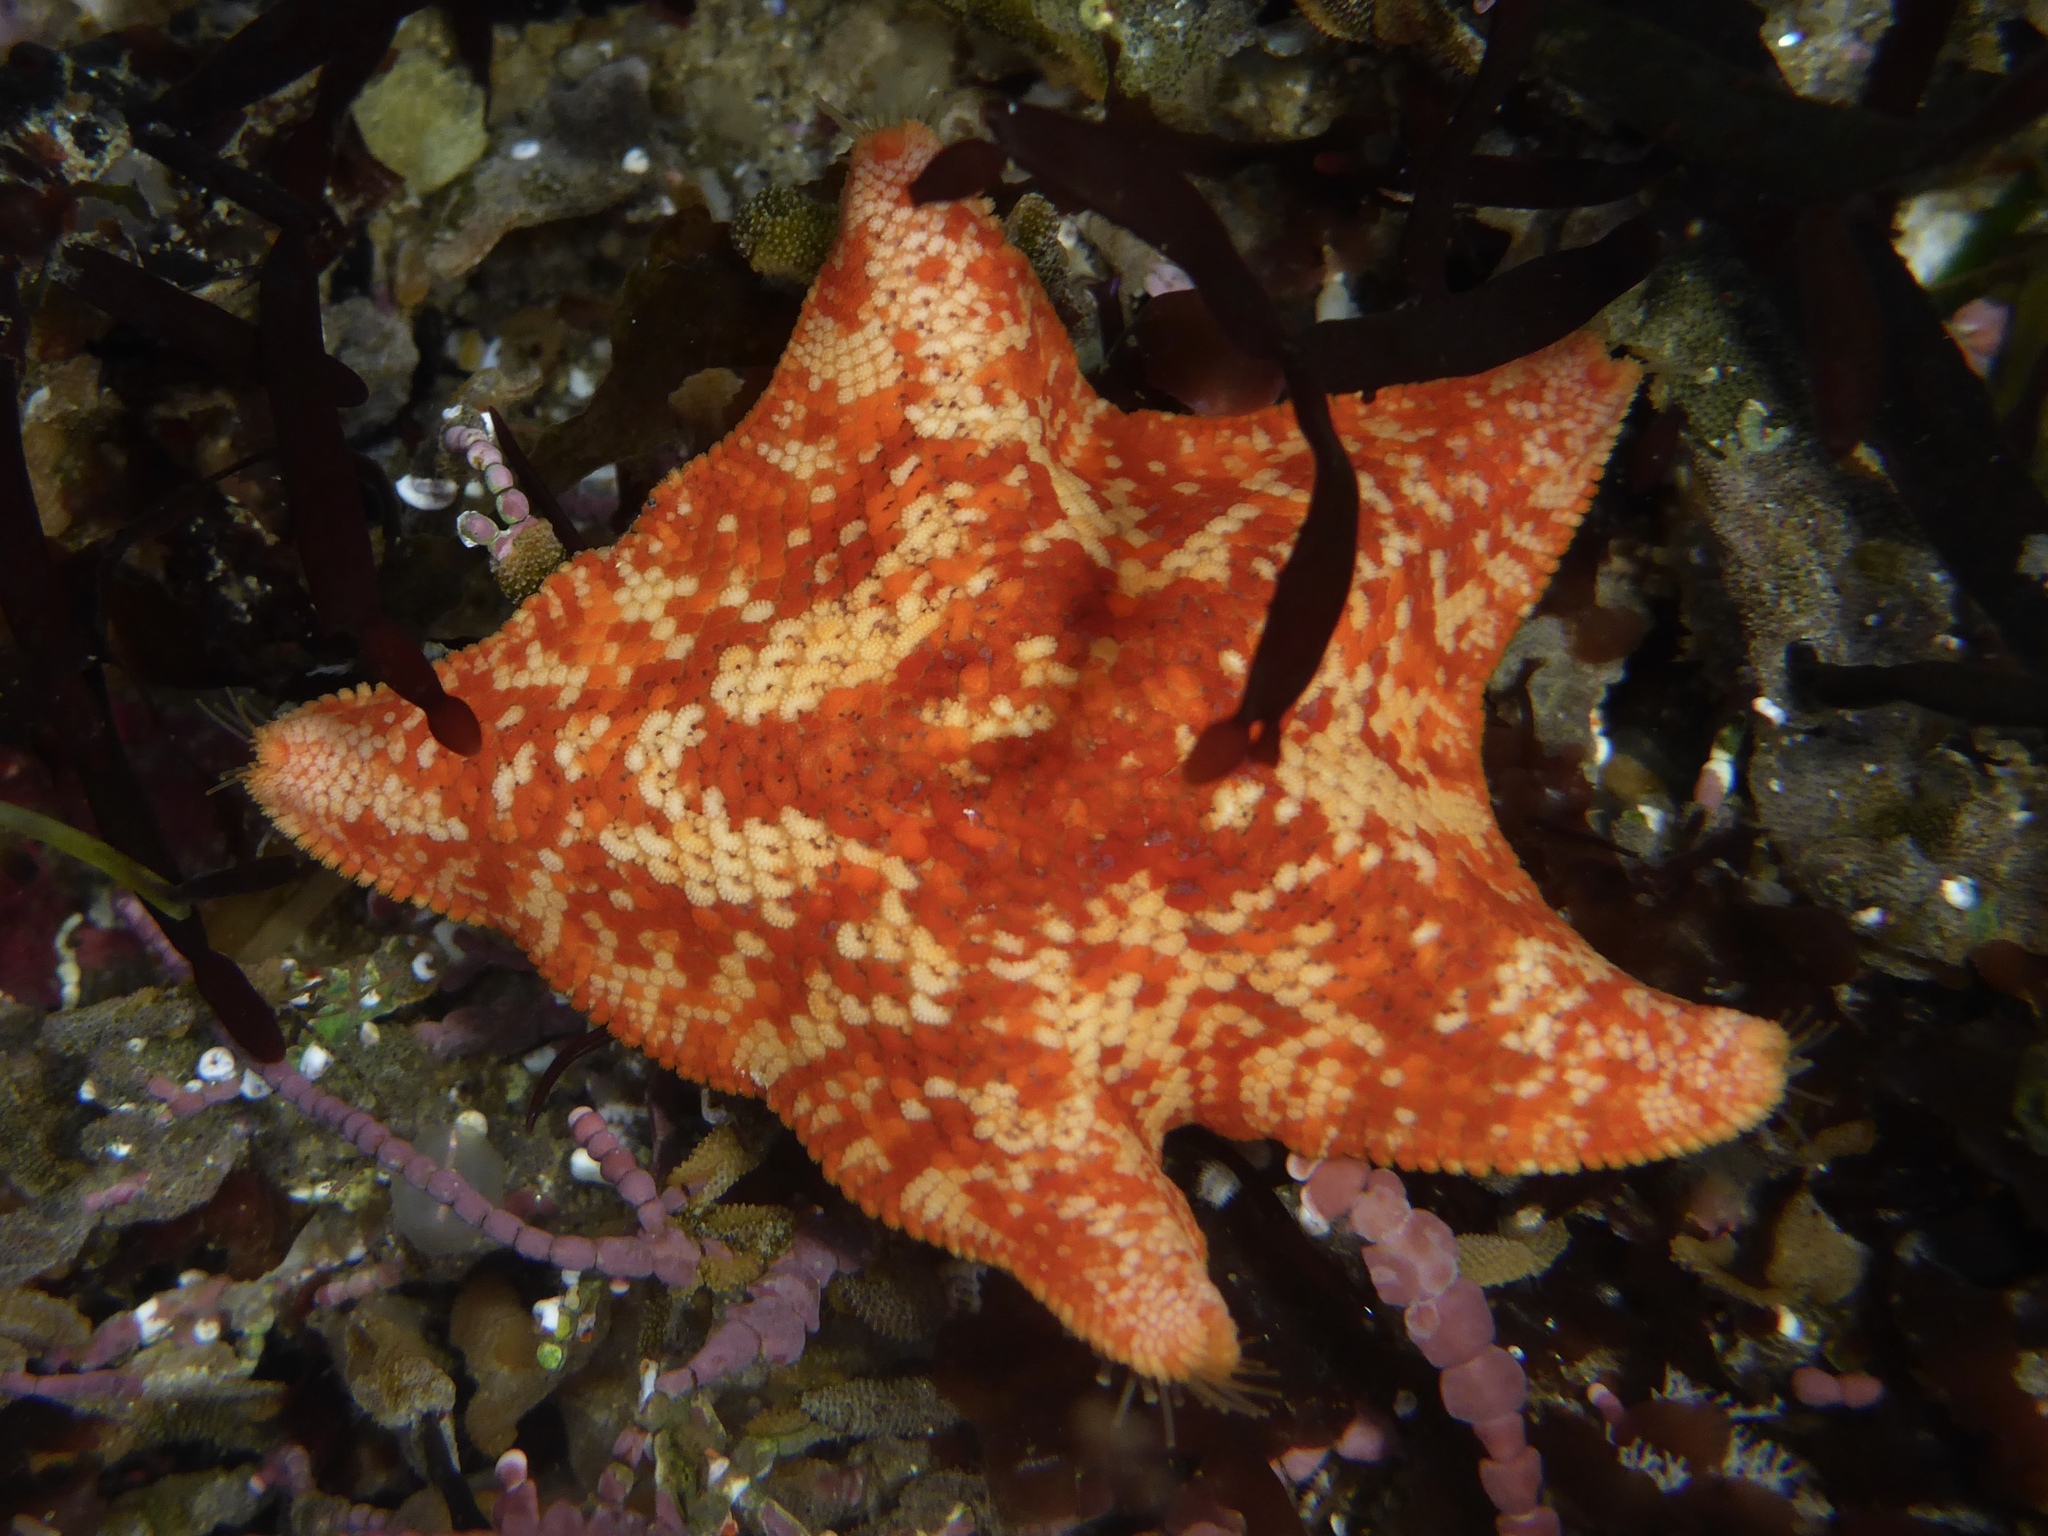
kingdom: Animalia
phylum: Echinodermata
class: Asteroidea
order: Valvatida
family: Asterinidae
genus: Patiria
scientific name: Patiria miniata
